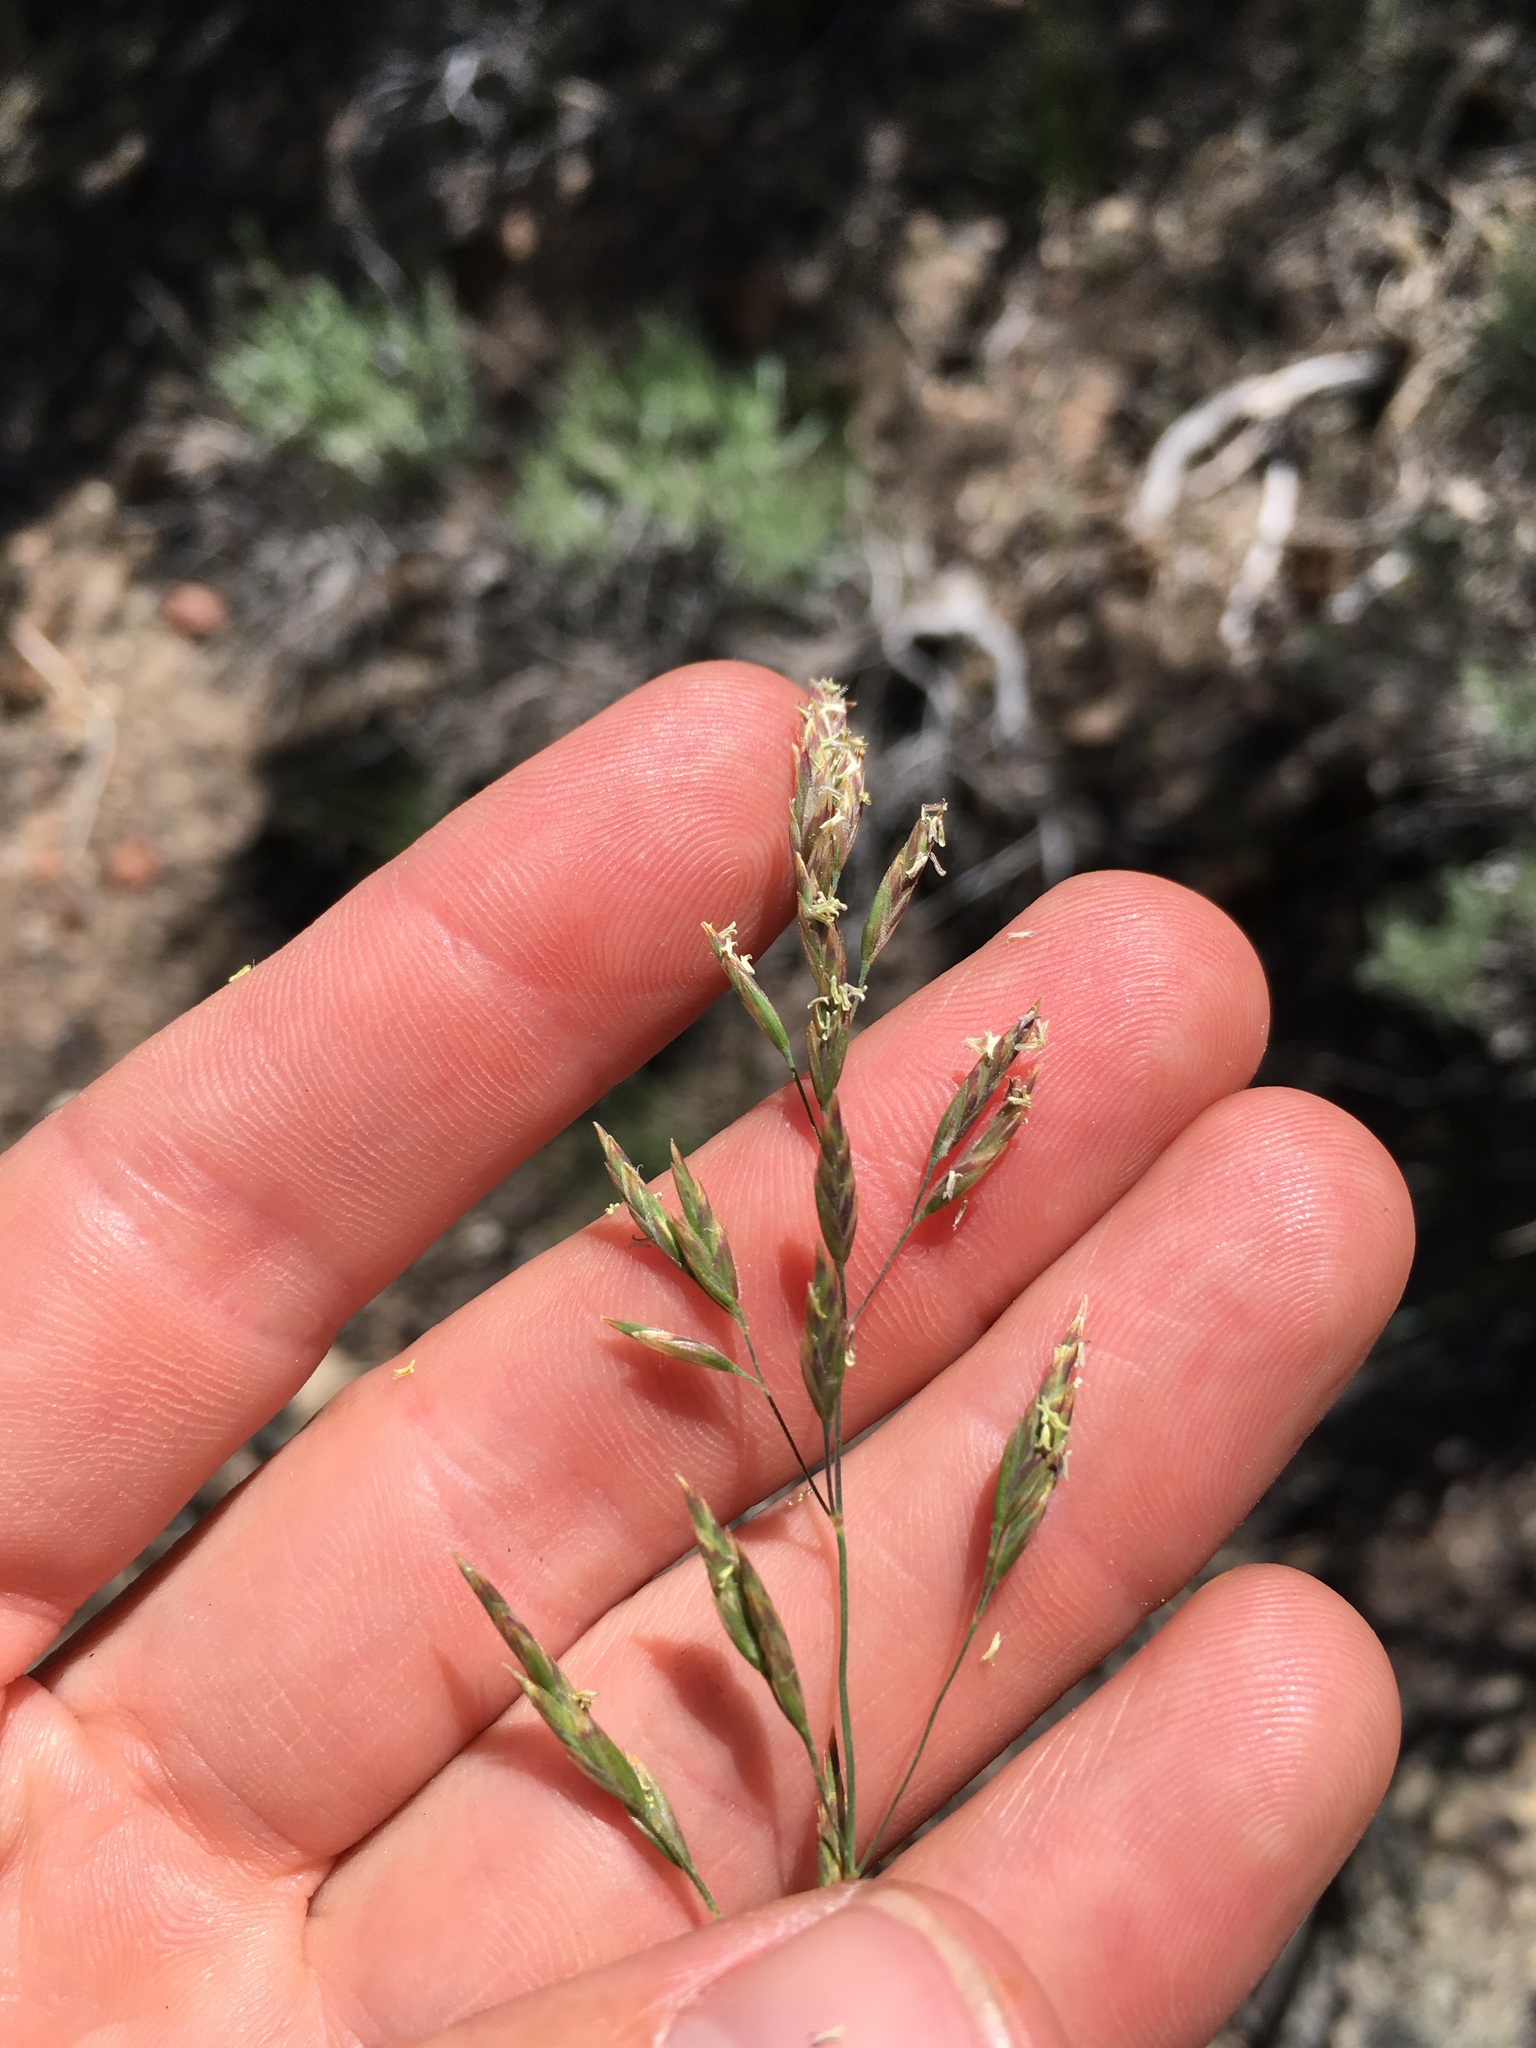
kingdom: Plantae
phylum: Tracheophyta
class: Liliopsida
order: Poales
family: Poaceae
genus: Poa
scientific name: Poa secunda
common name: Sandberg bluegrass
